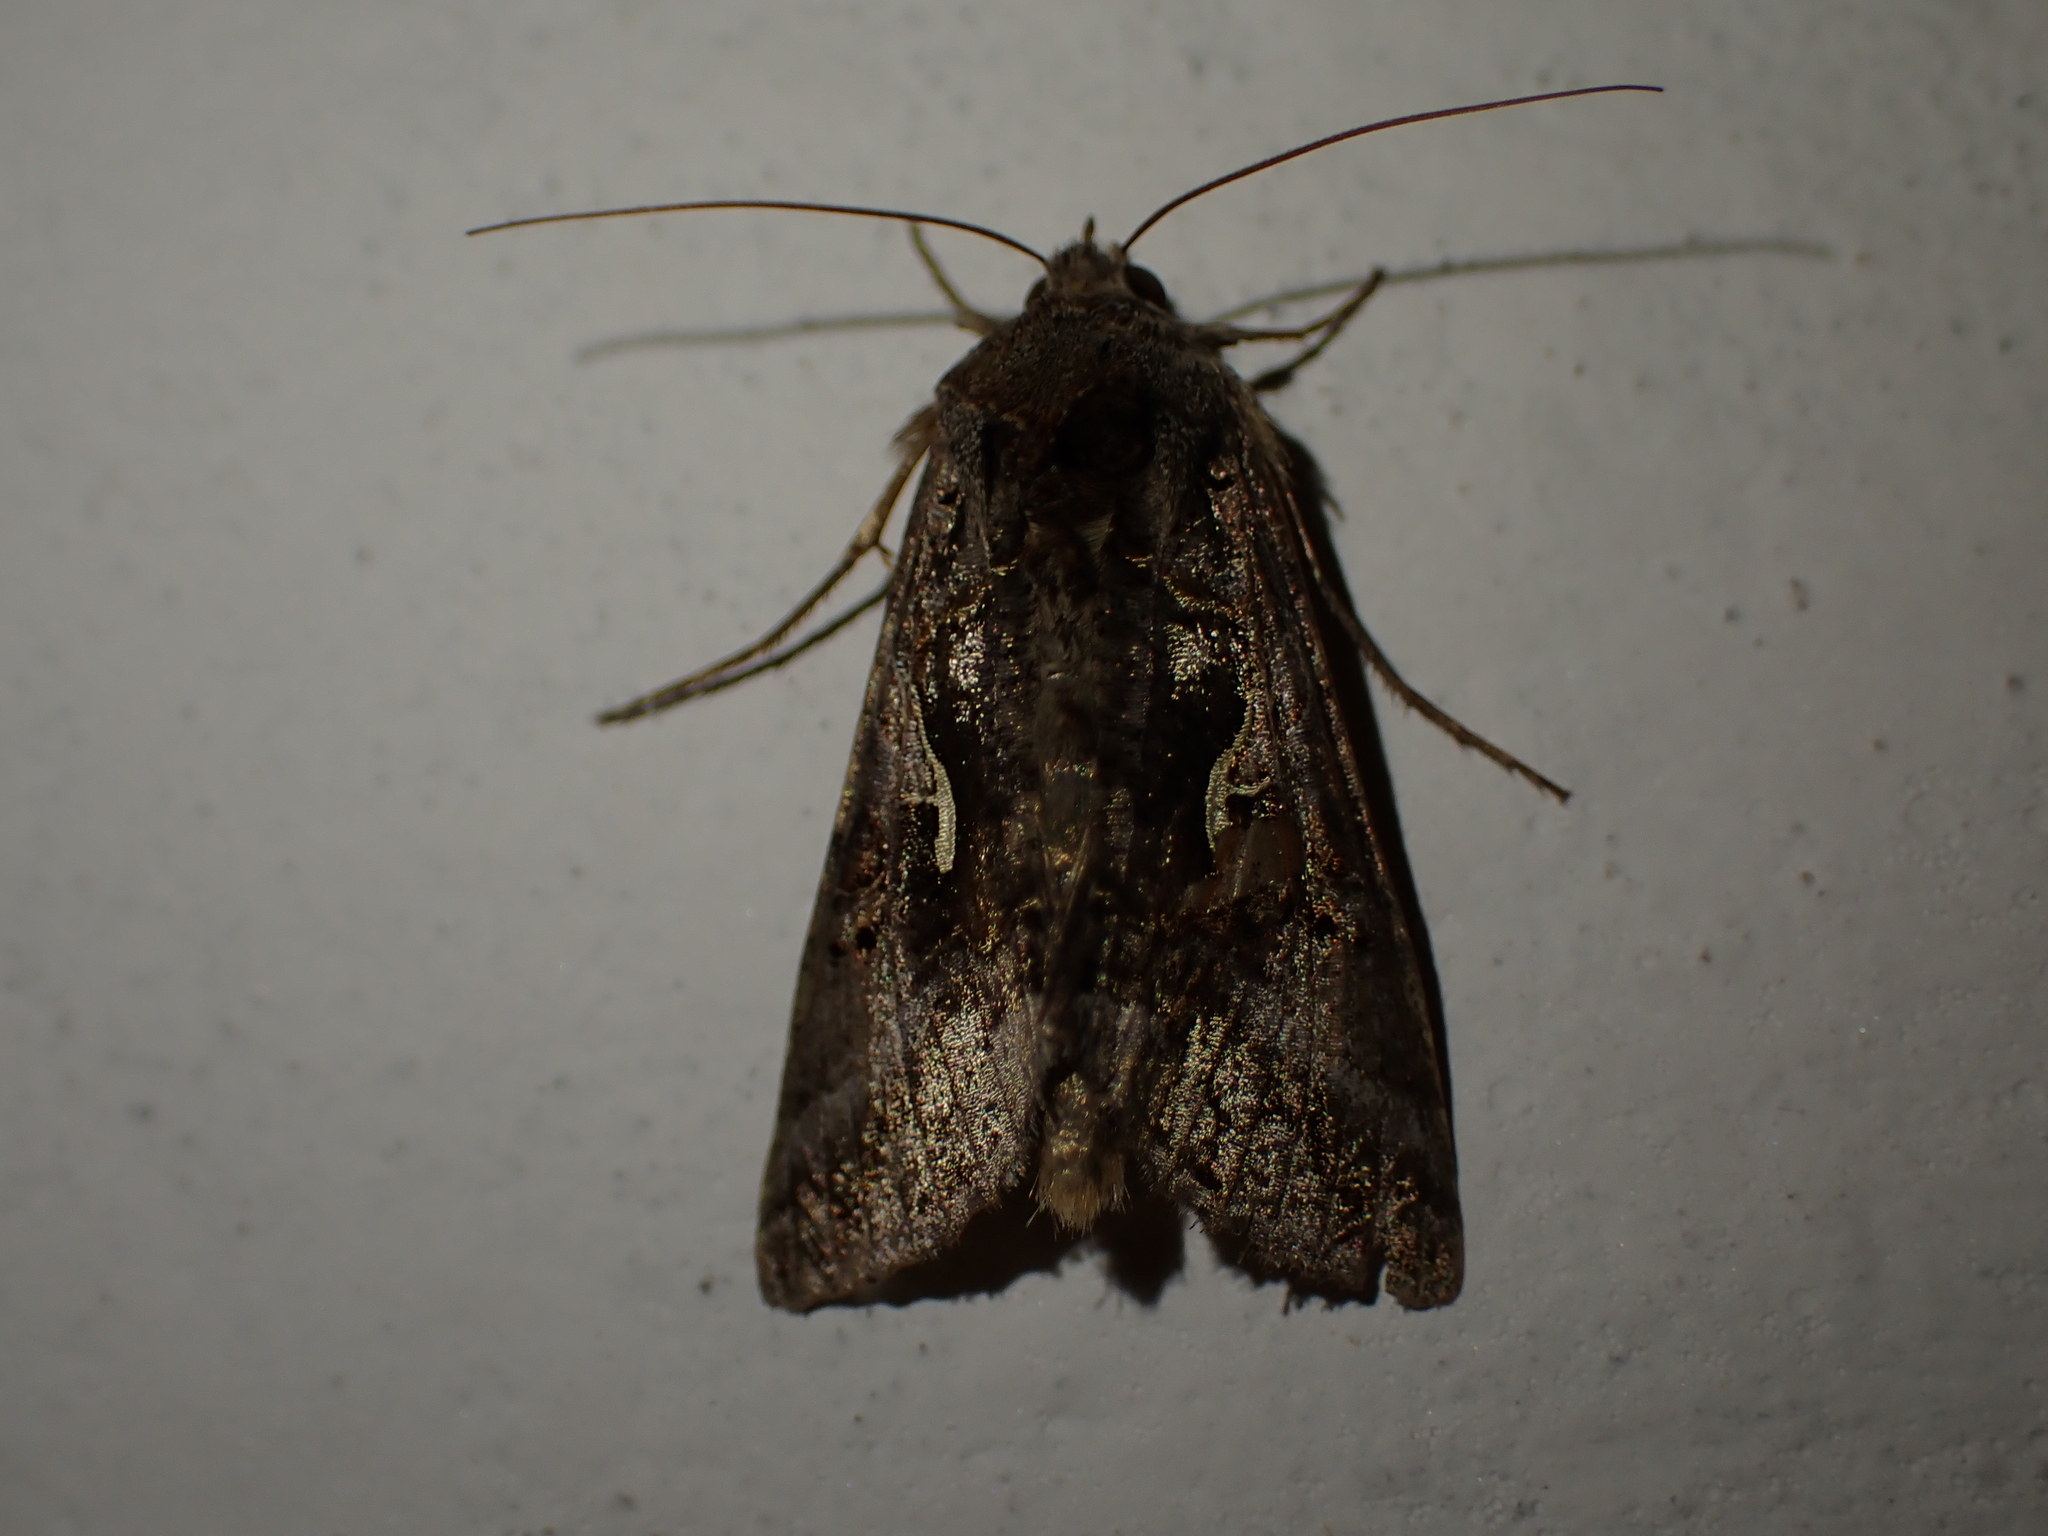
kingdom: Animalia
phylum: Arthropoda
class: Insecta
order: Lepidoptera
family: Noctuidae
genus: Autographa
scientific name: Autographa gamma
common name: Silver y
